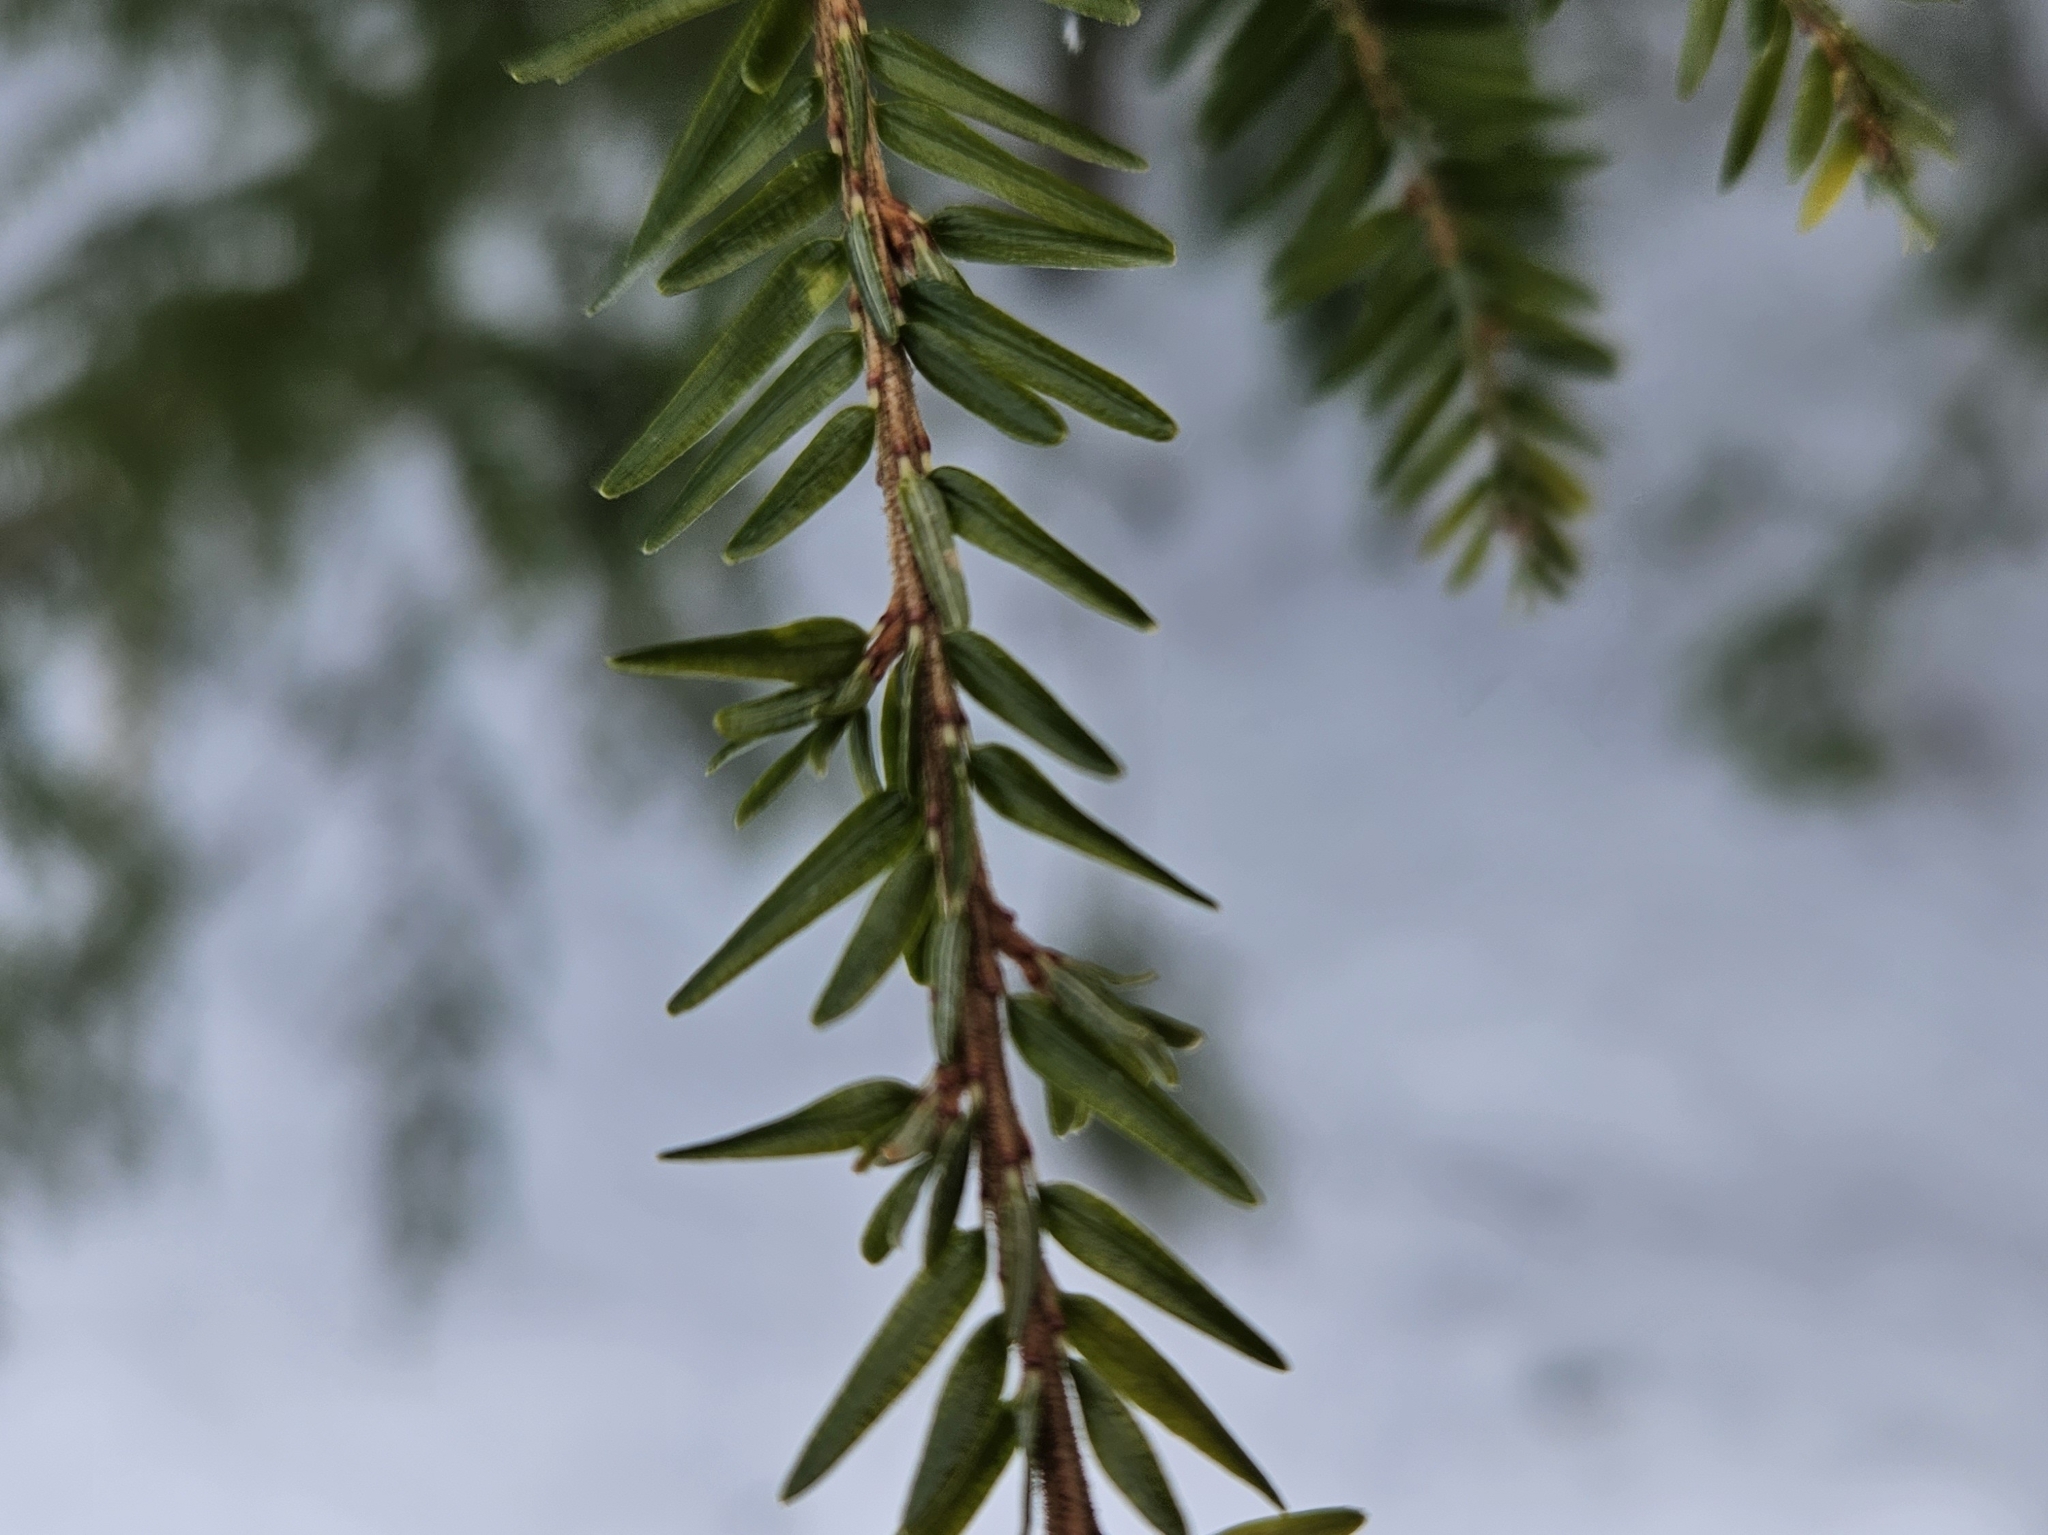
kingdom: Plantae
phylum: Tracheophyta
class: Pinopsida
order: Pinales
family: Pinaceae
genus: Tsuga
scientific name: Tsuga canadensis
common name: Eastern hemlock
